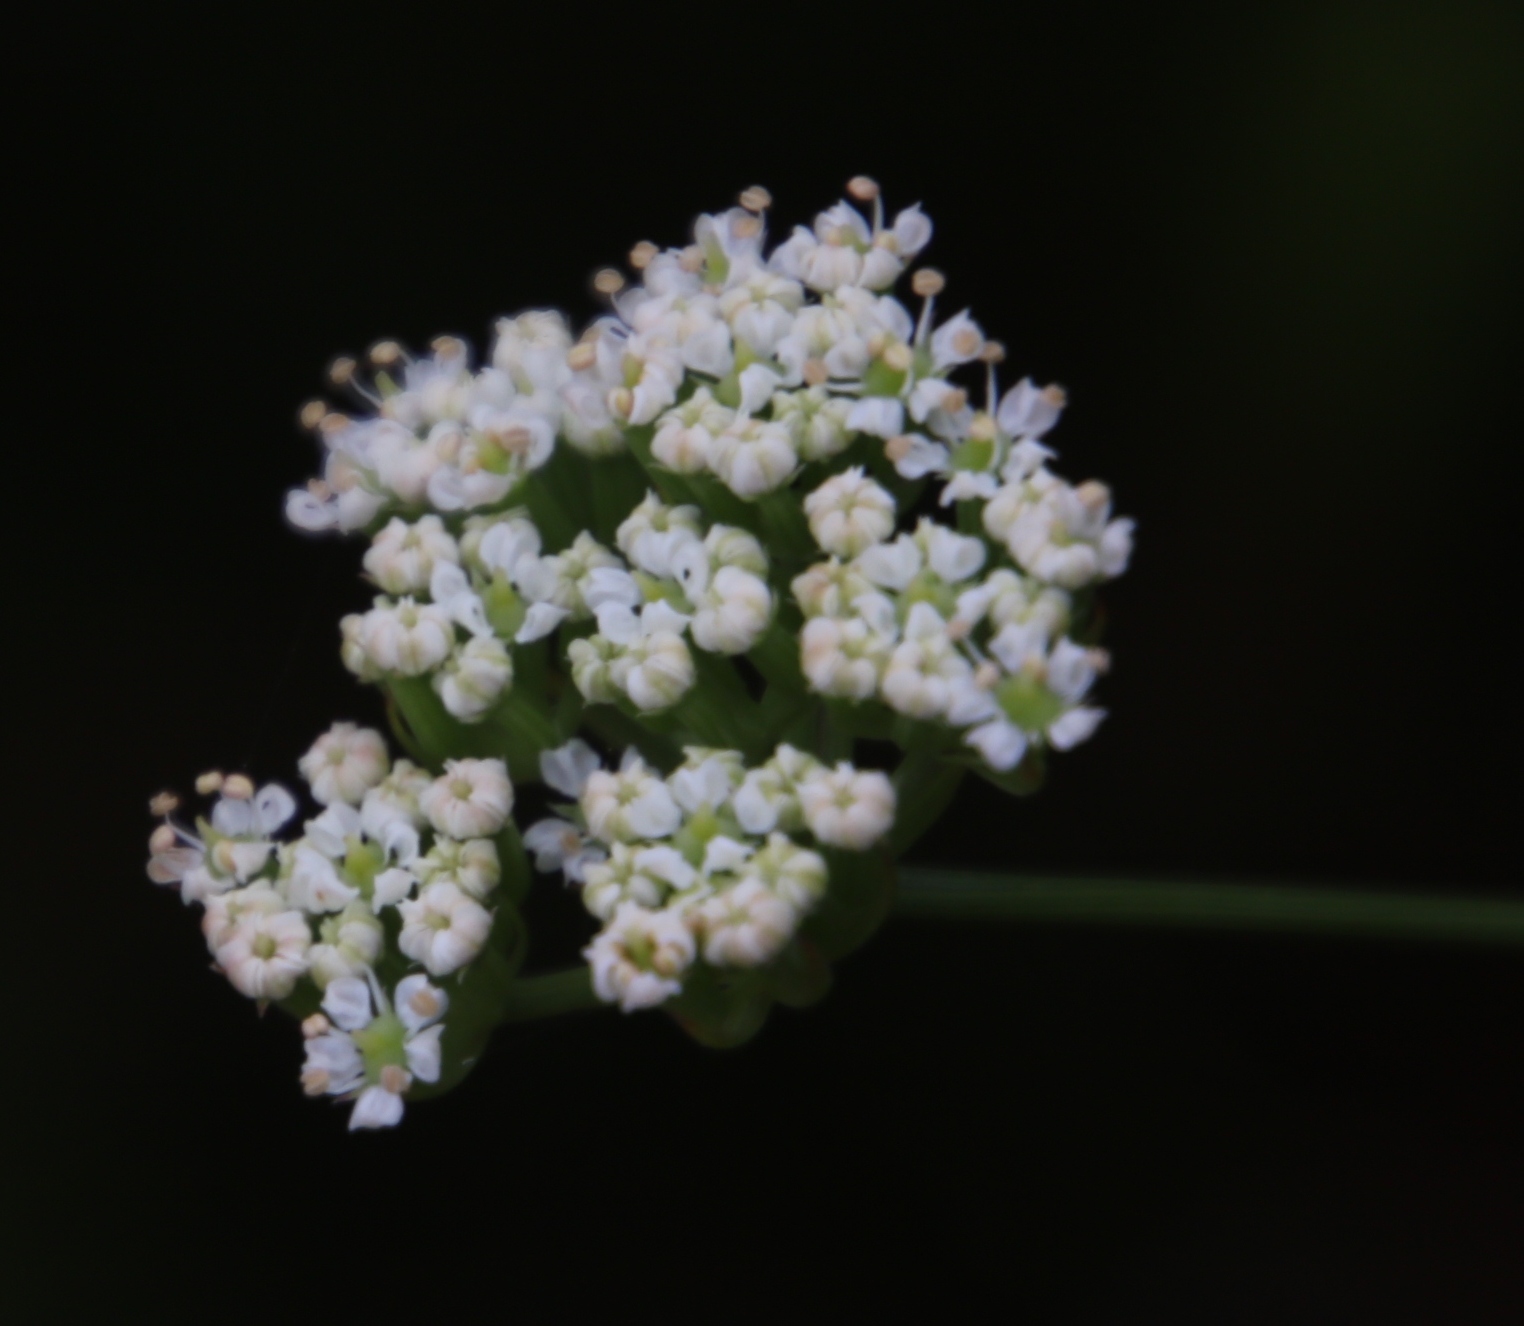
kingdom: Plantae
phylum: Tracheophyta
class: Magnoliopsida
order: Apiales
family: Apiaceae
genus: Itasina
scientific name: Itasina filifolia
